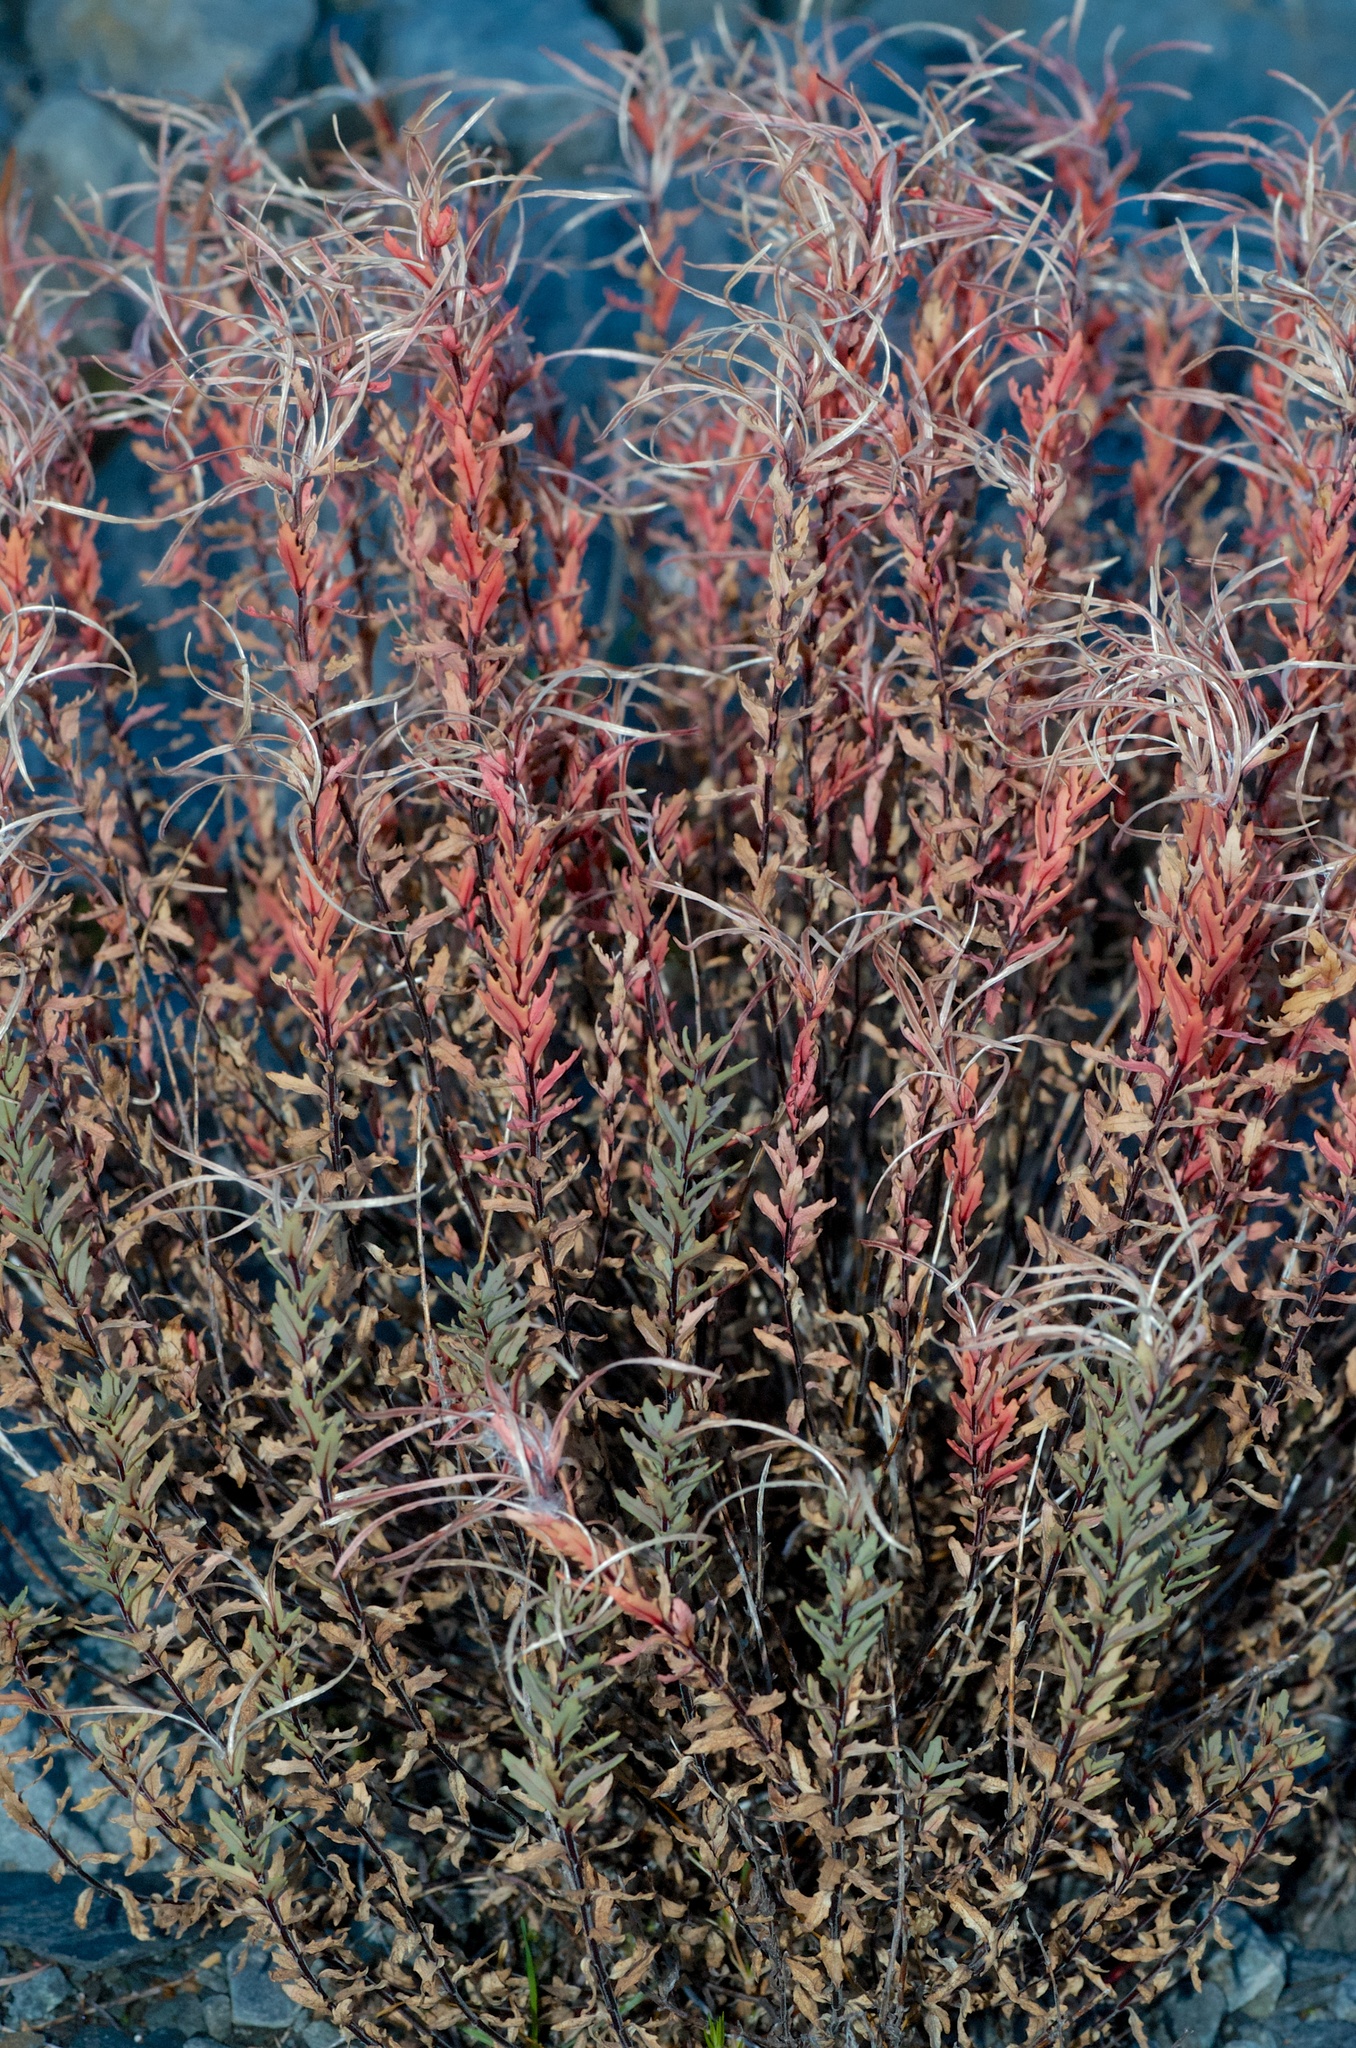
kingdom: Plantae
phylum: Tracheophyta
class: Magnoliopsida
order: Myrtales
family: Onagraceae
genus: Epilobium
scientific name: Epilobium melanocaulon
